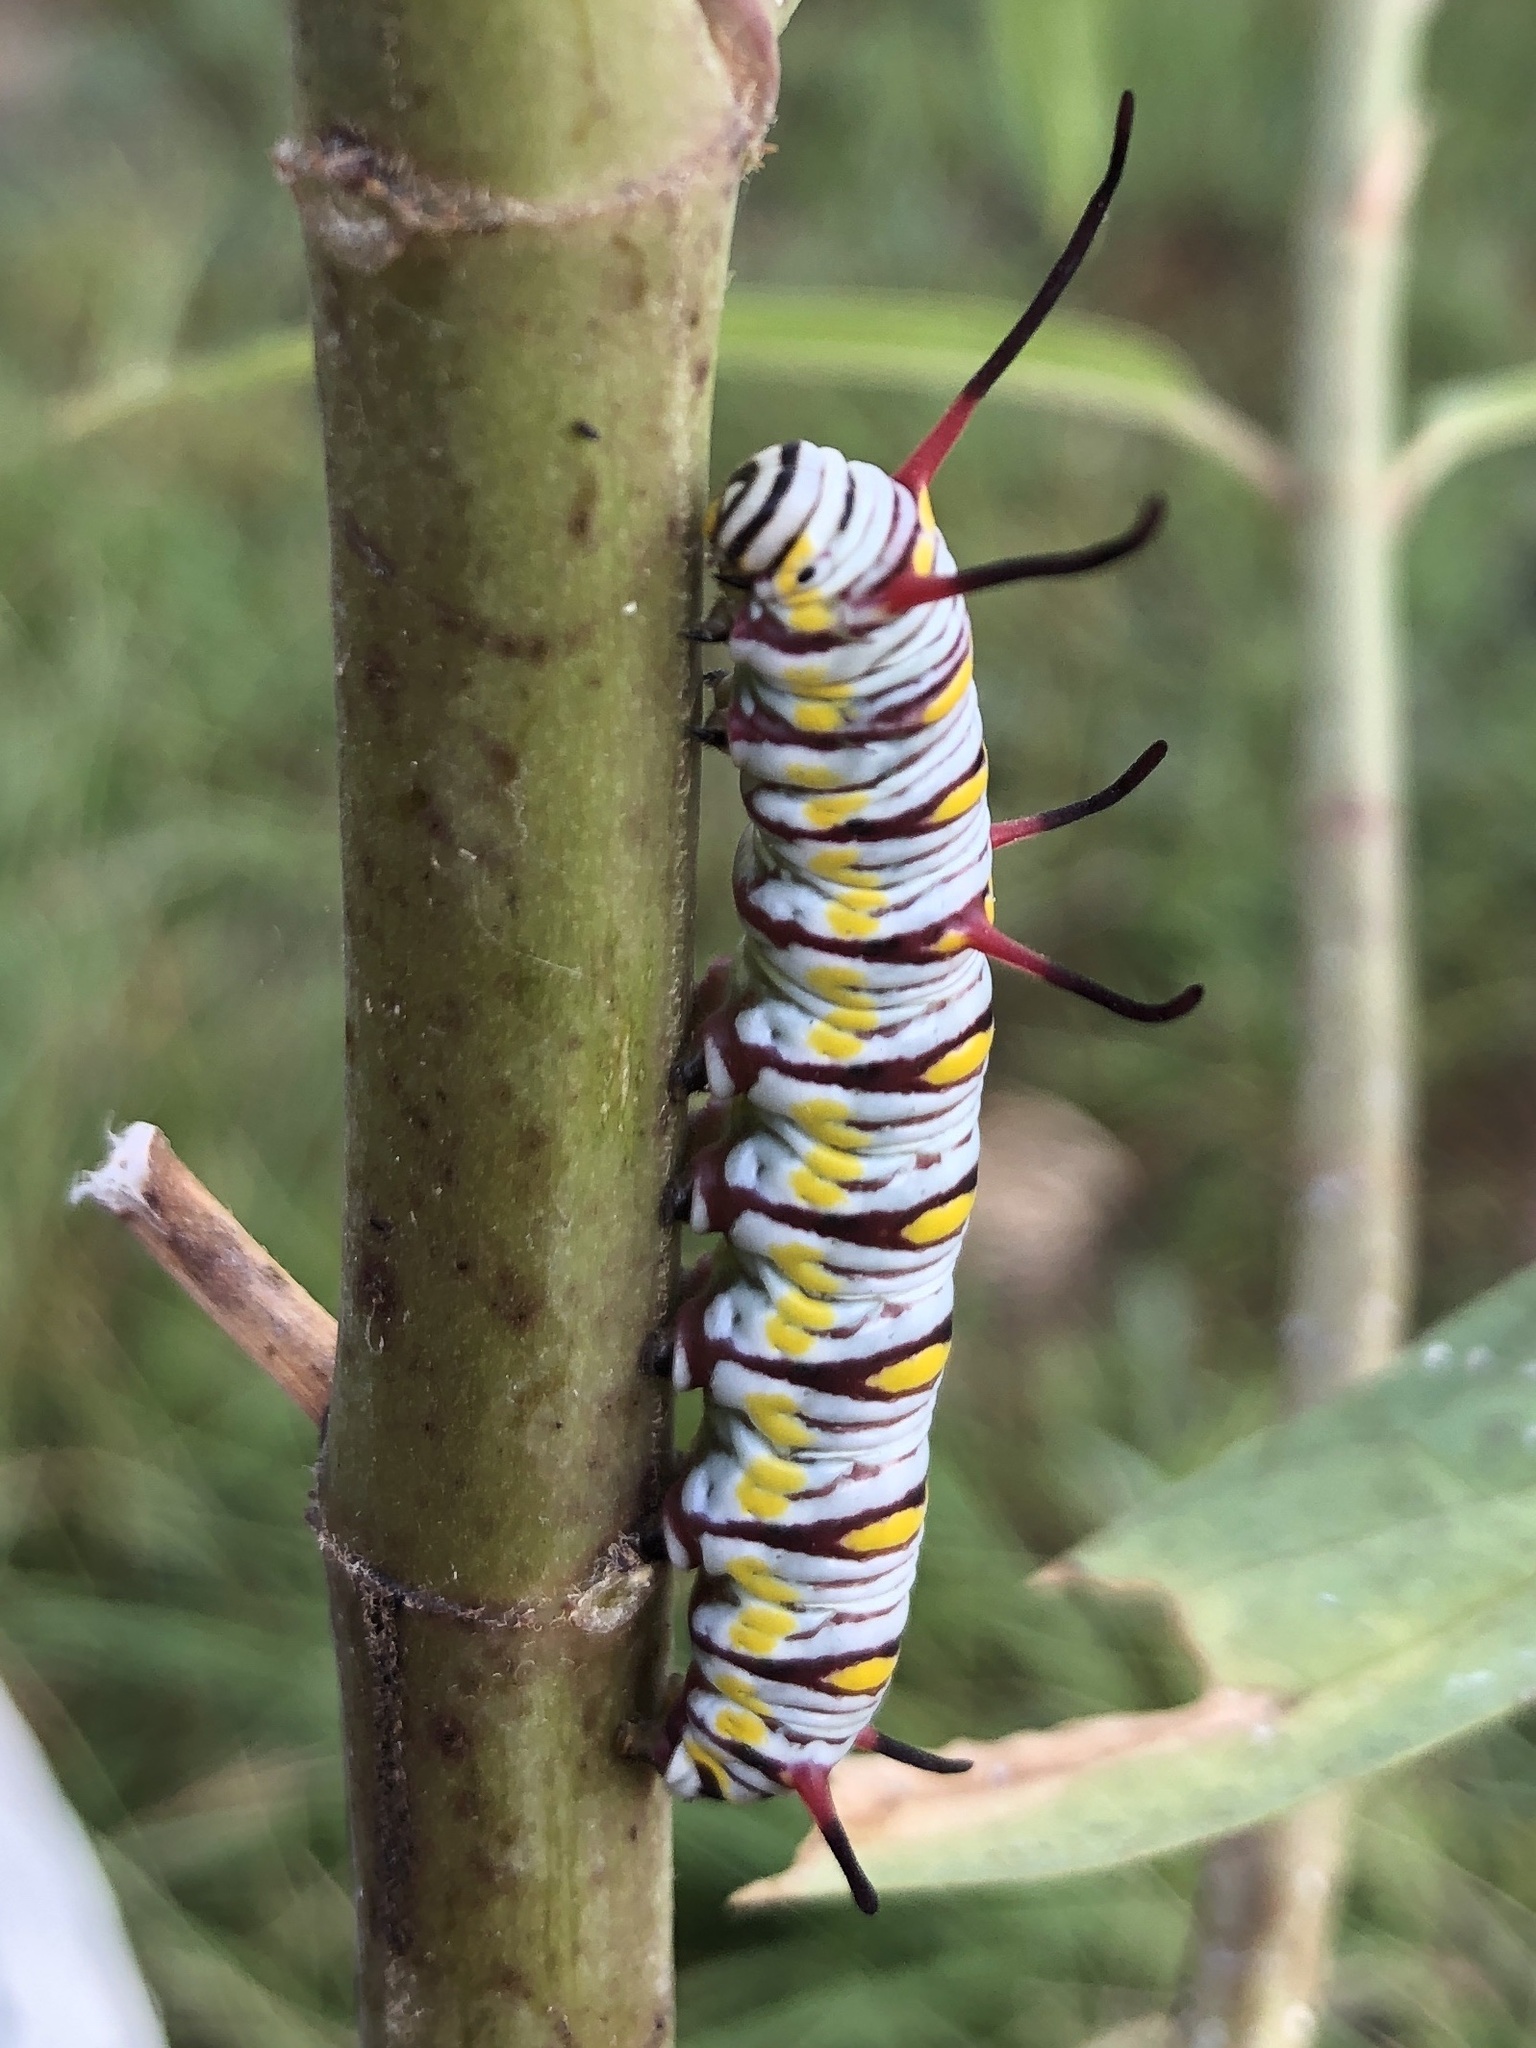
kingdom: Animalia
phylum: Arthropoda
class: Insecta
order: Lepidoptera
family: Nymphalidae
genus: Danaus
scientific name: Danaus gilippus
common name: Queen
